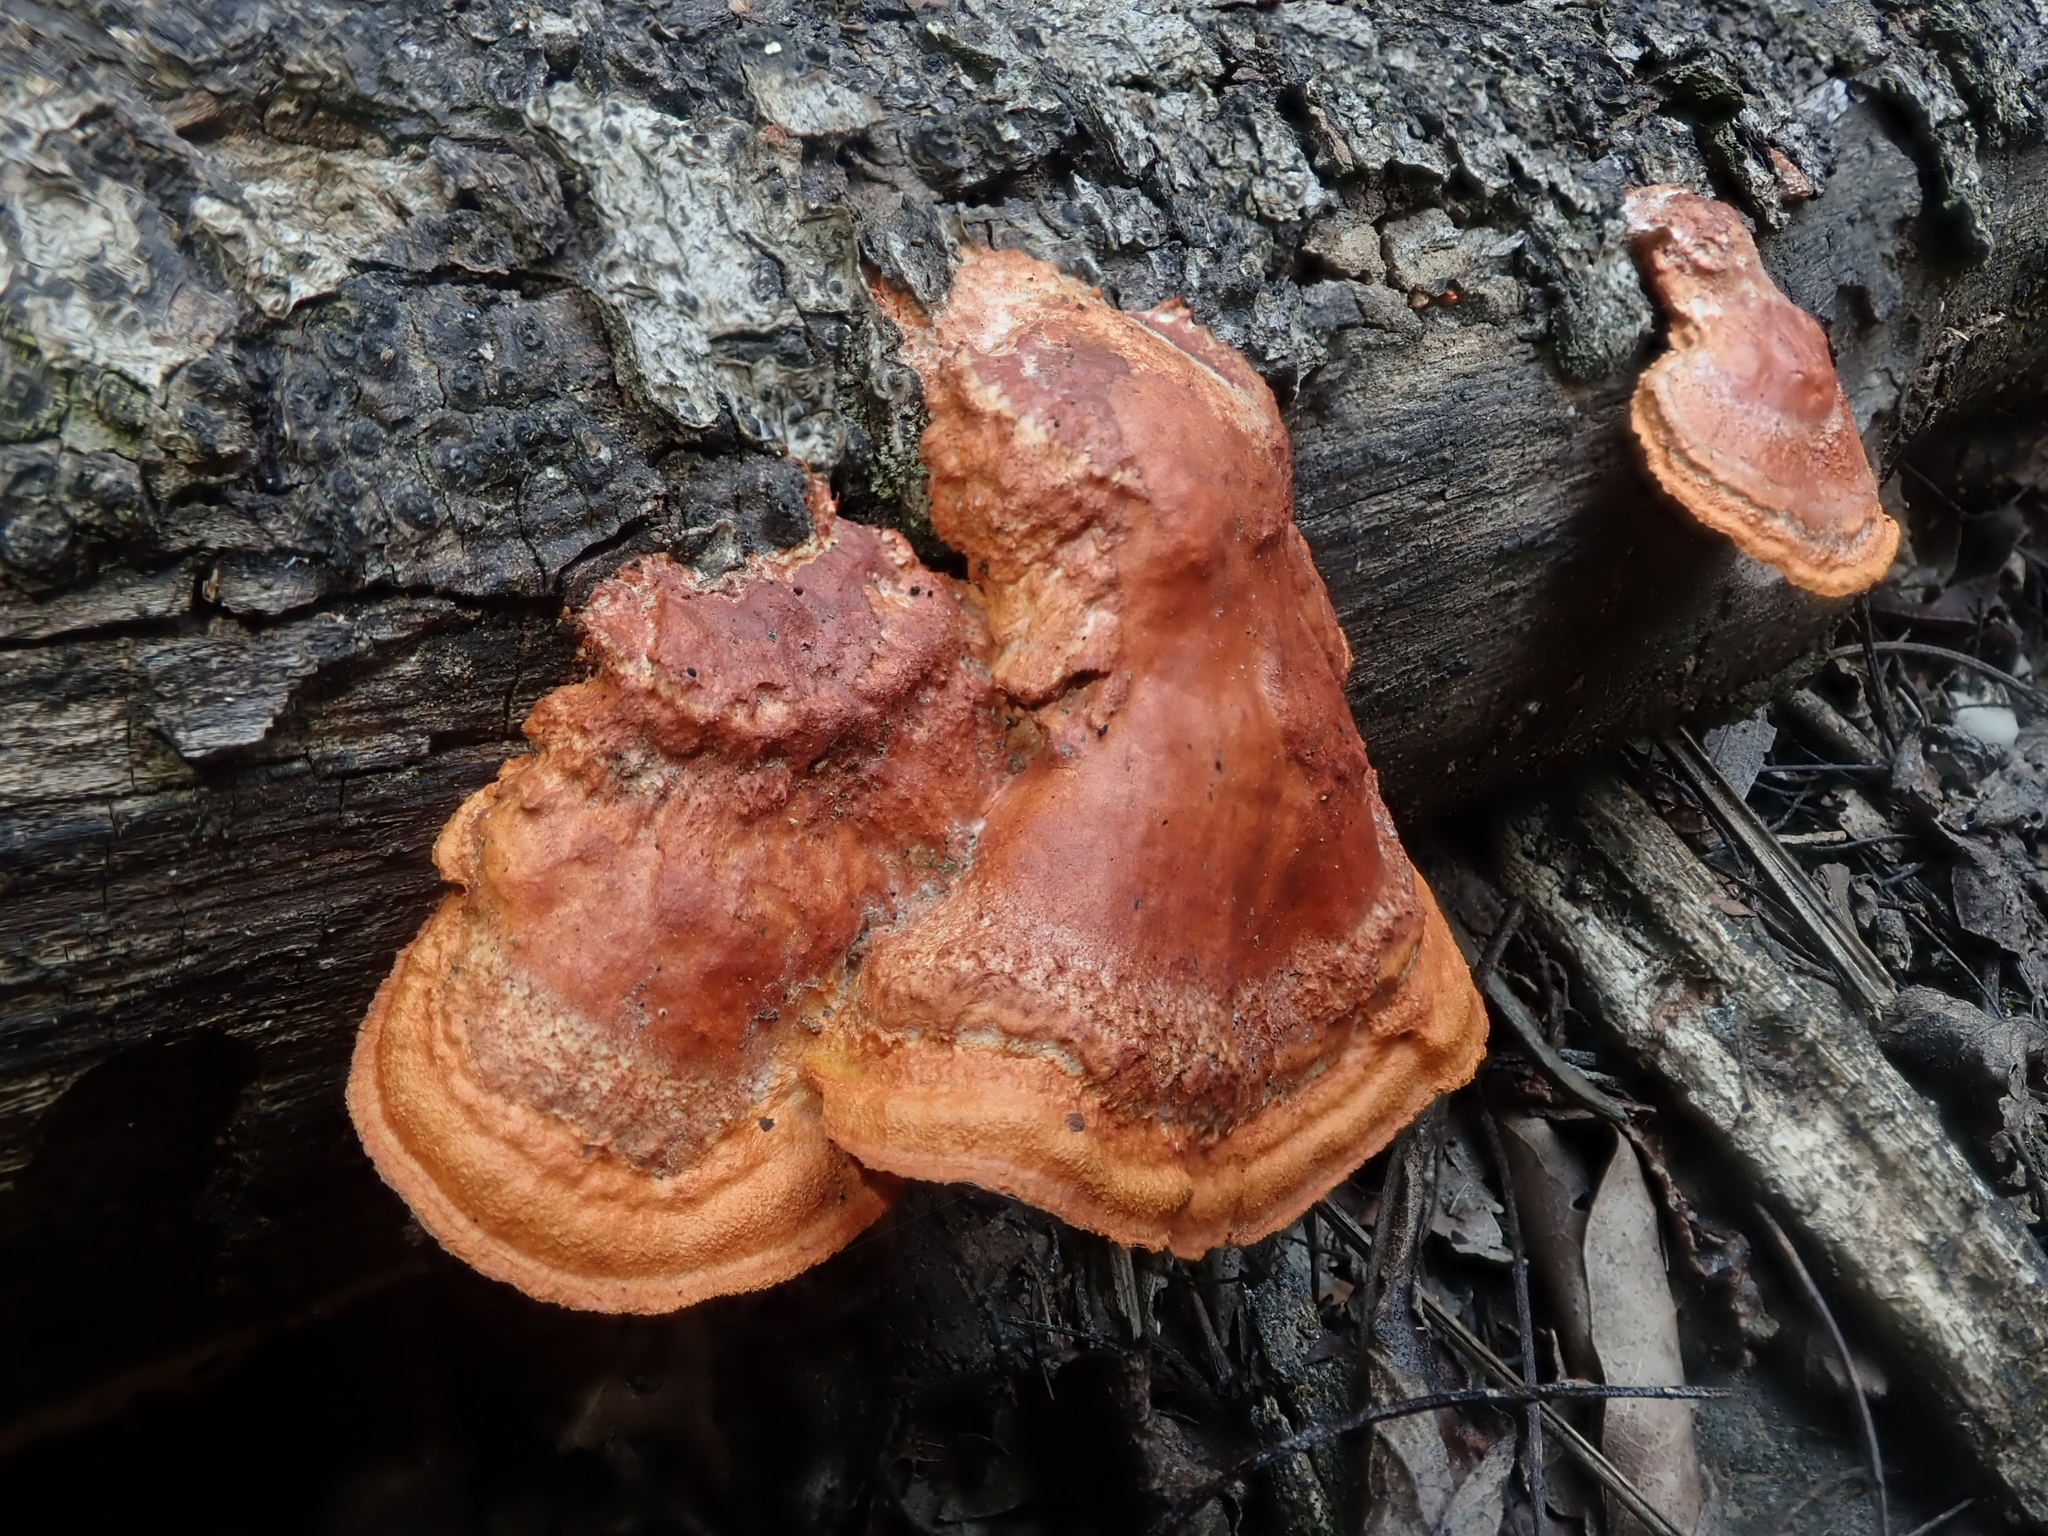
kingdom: Fungi
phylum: Basidiomycota
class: Agaricomycetes
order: Polyporales
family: Polyporaceae
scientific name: Polyporaceae
